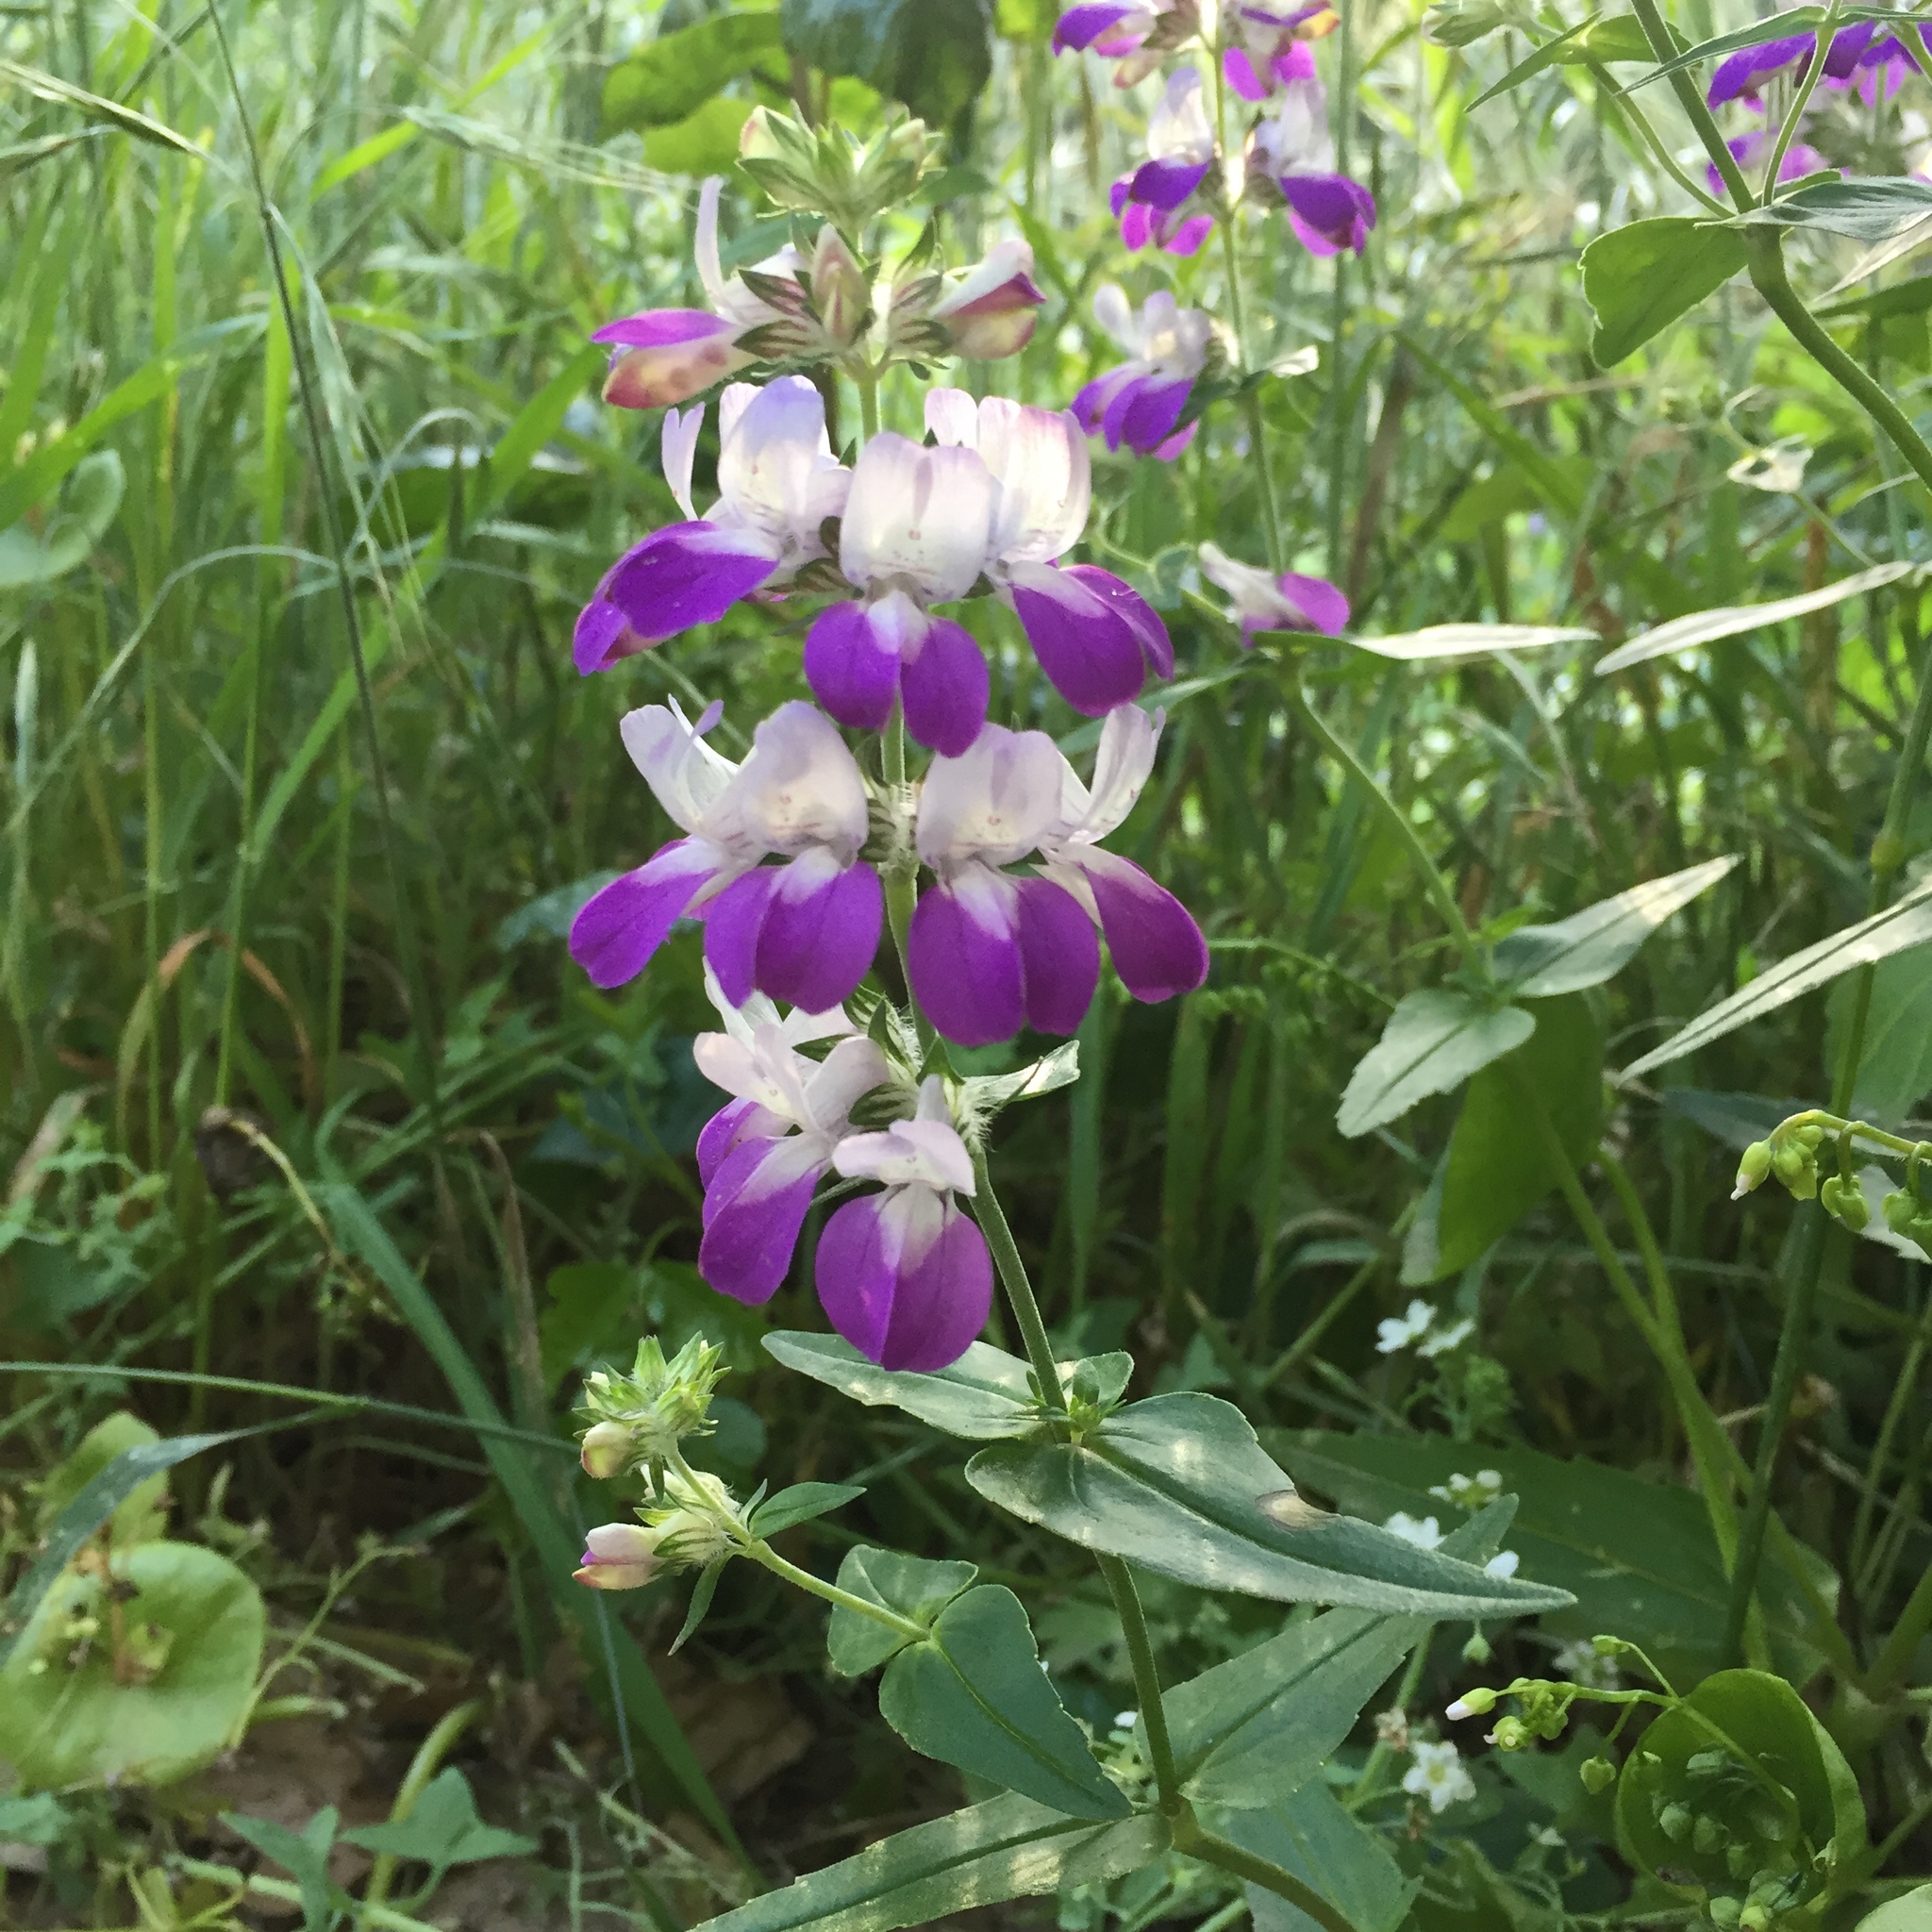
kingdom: Plantae
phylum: Tracheophyta
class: Magnoliopsida
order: Lamiales
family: Plantaginaceae
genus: Collinsia
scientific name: Collinsia heterophylla
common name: Chinese-houses
